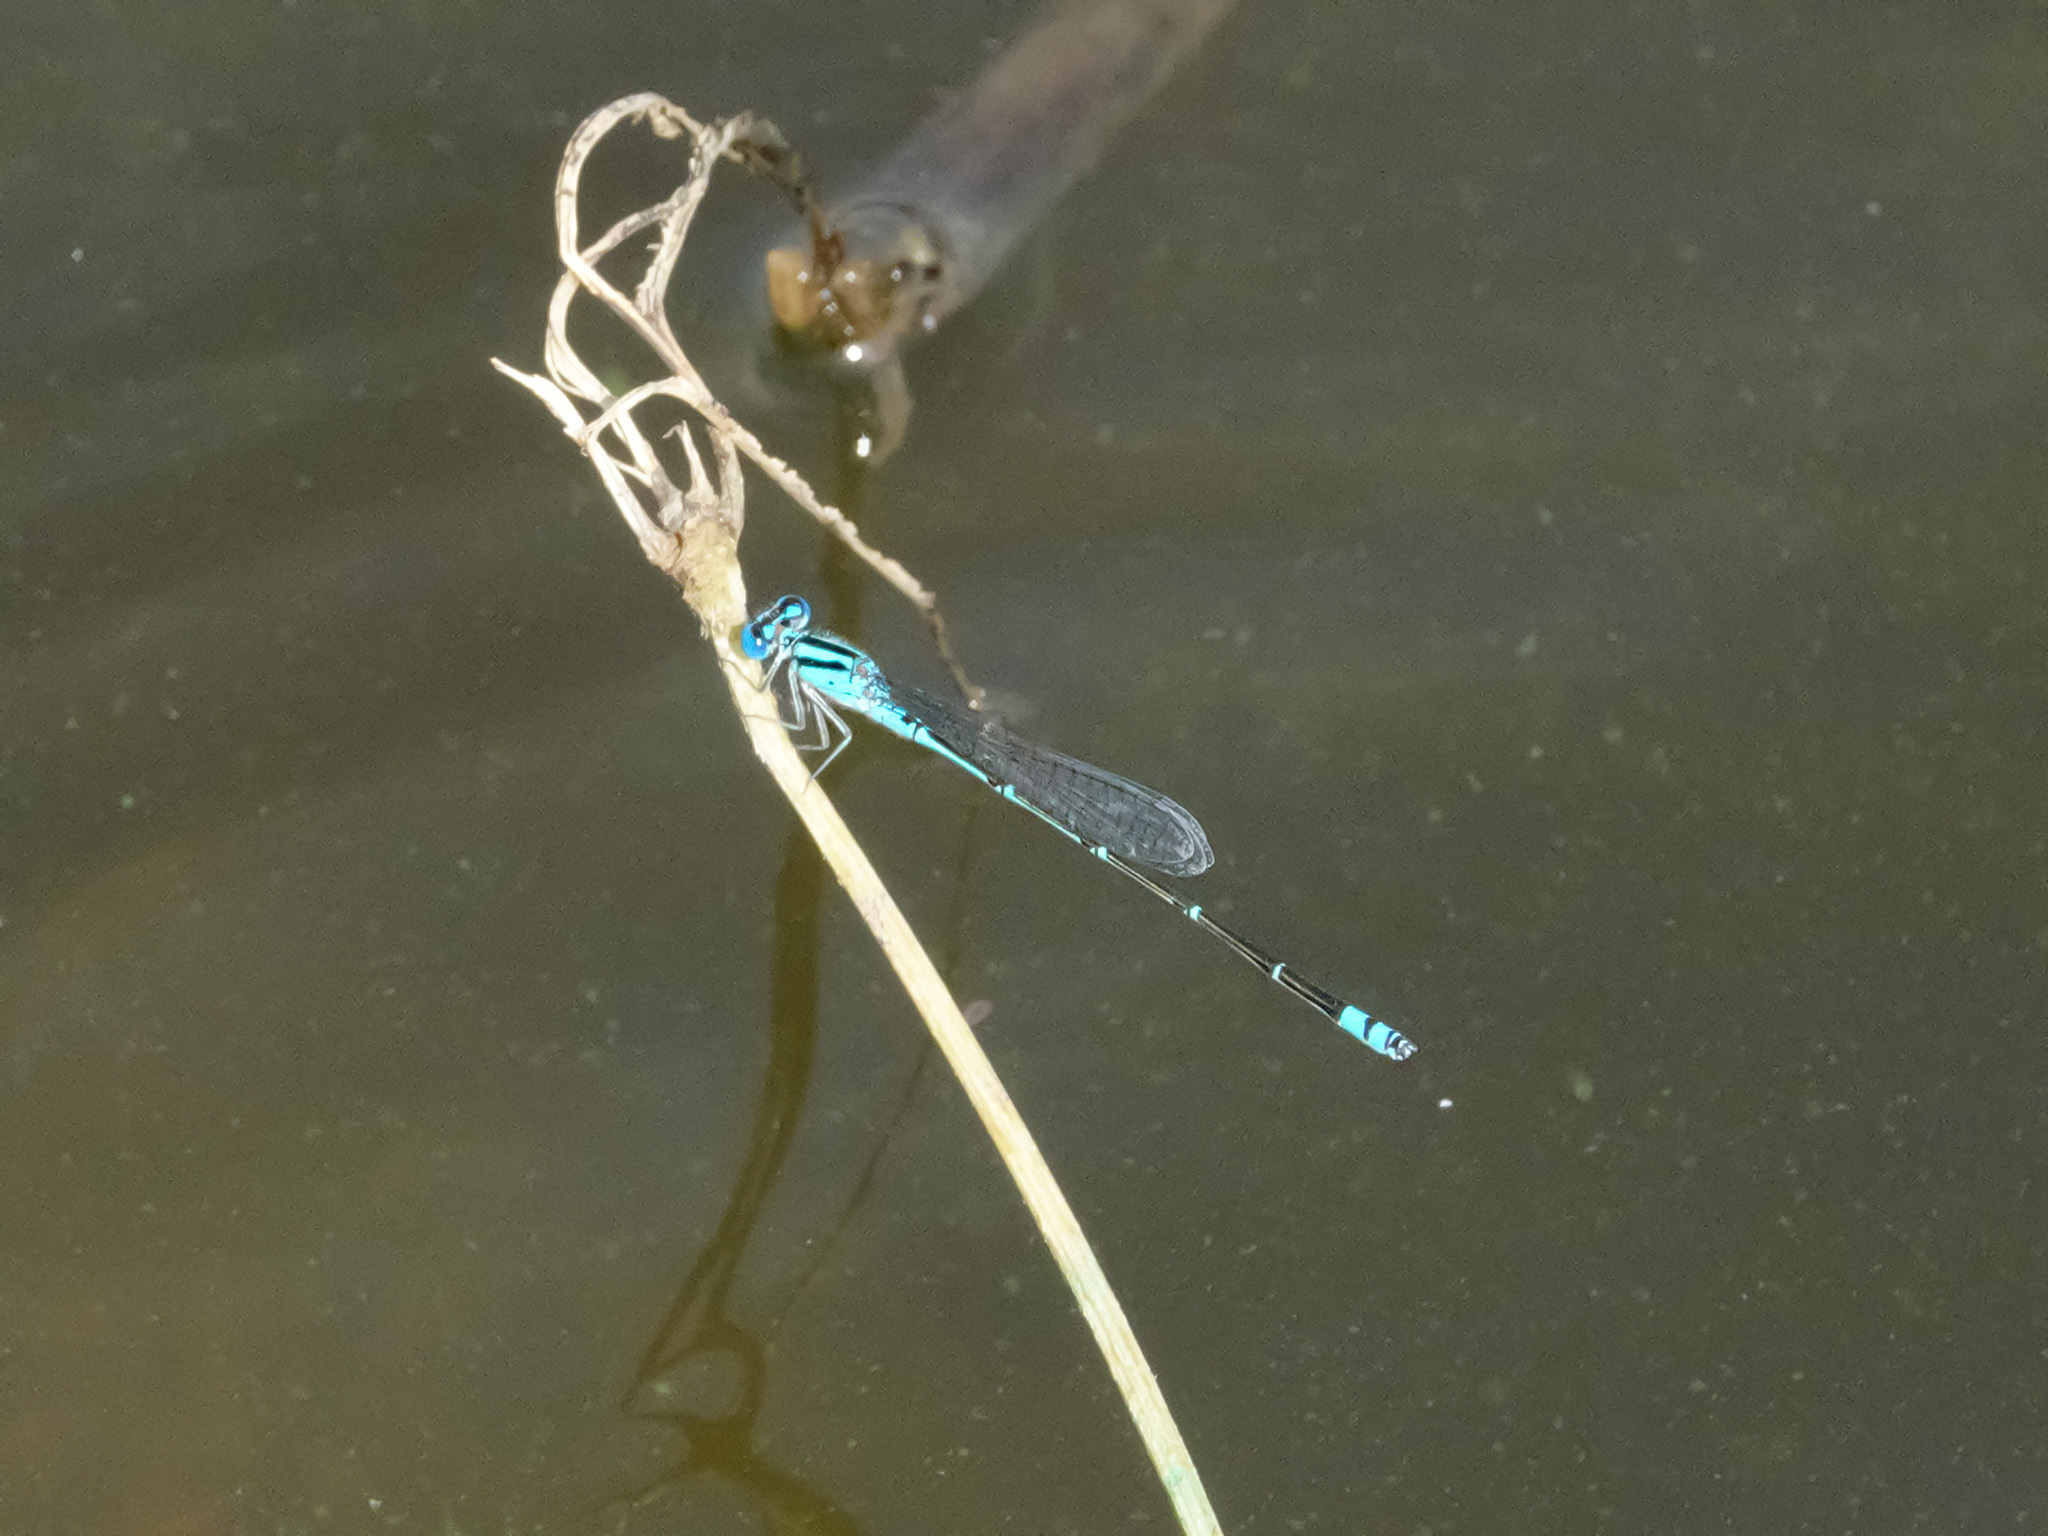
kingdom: Animalia
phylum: Arthropoda
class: Insecta
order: Odonata
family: Coenagrionidae
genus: Pseudagrion
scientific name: Pseudagrion microcephalum
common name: Blue riverdamsel
